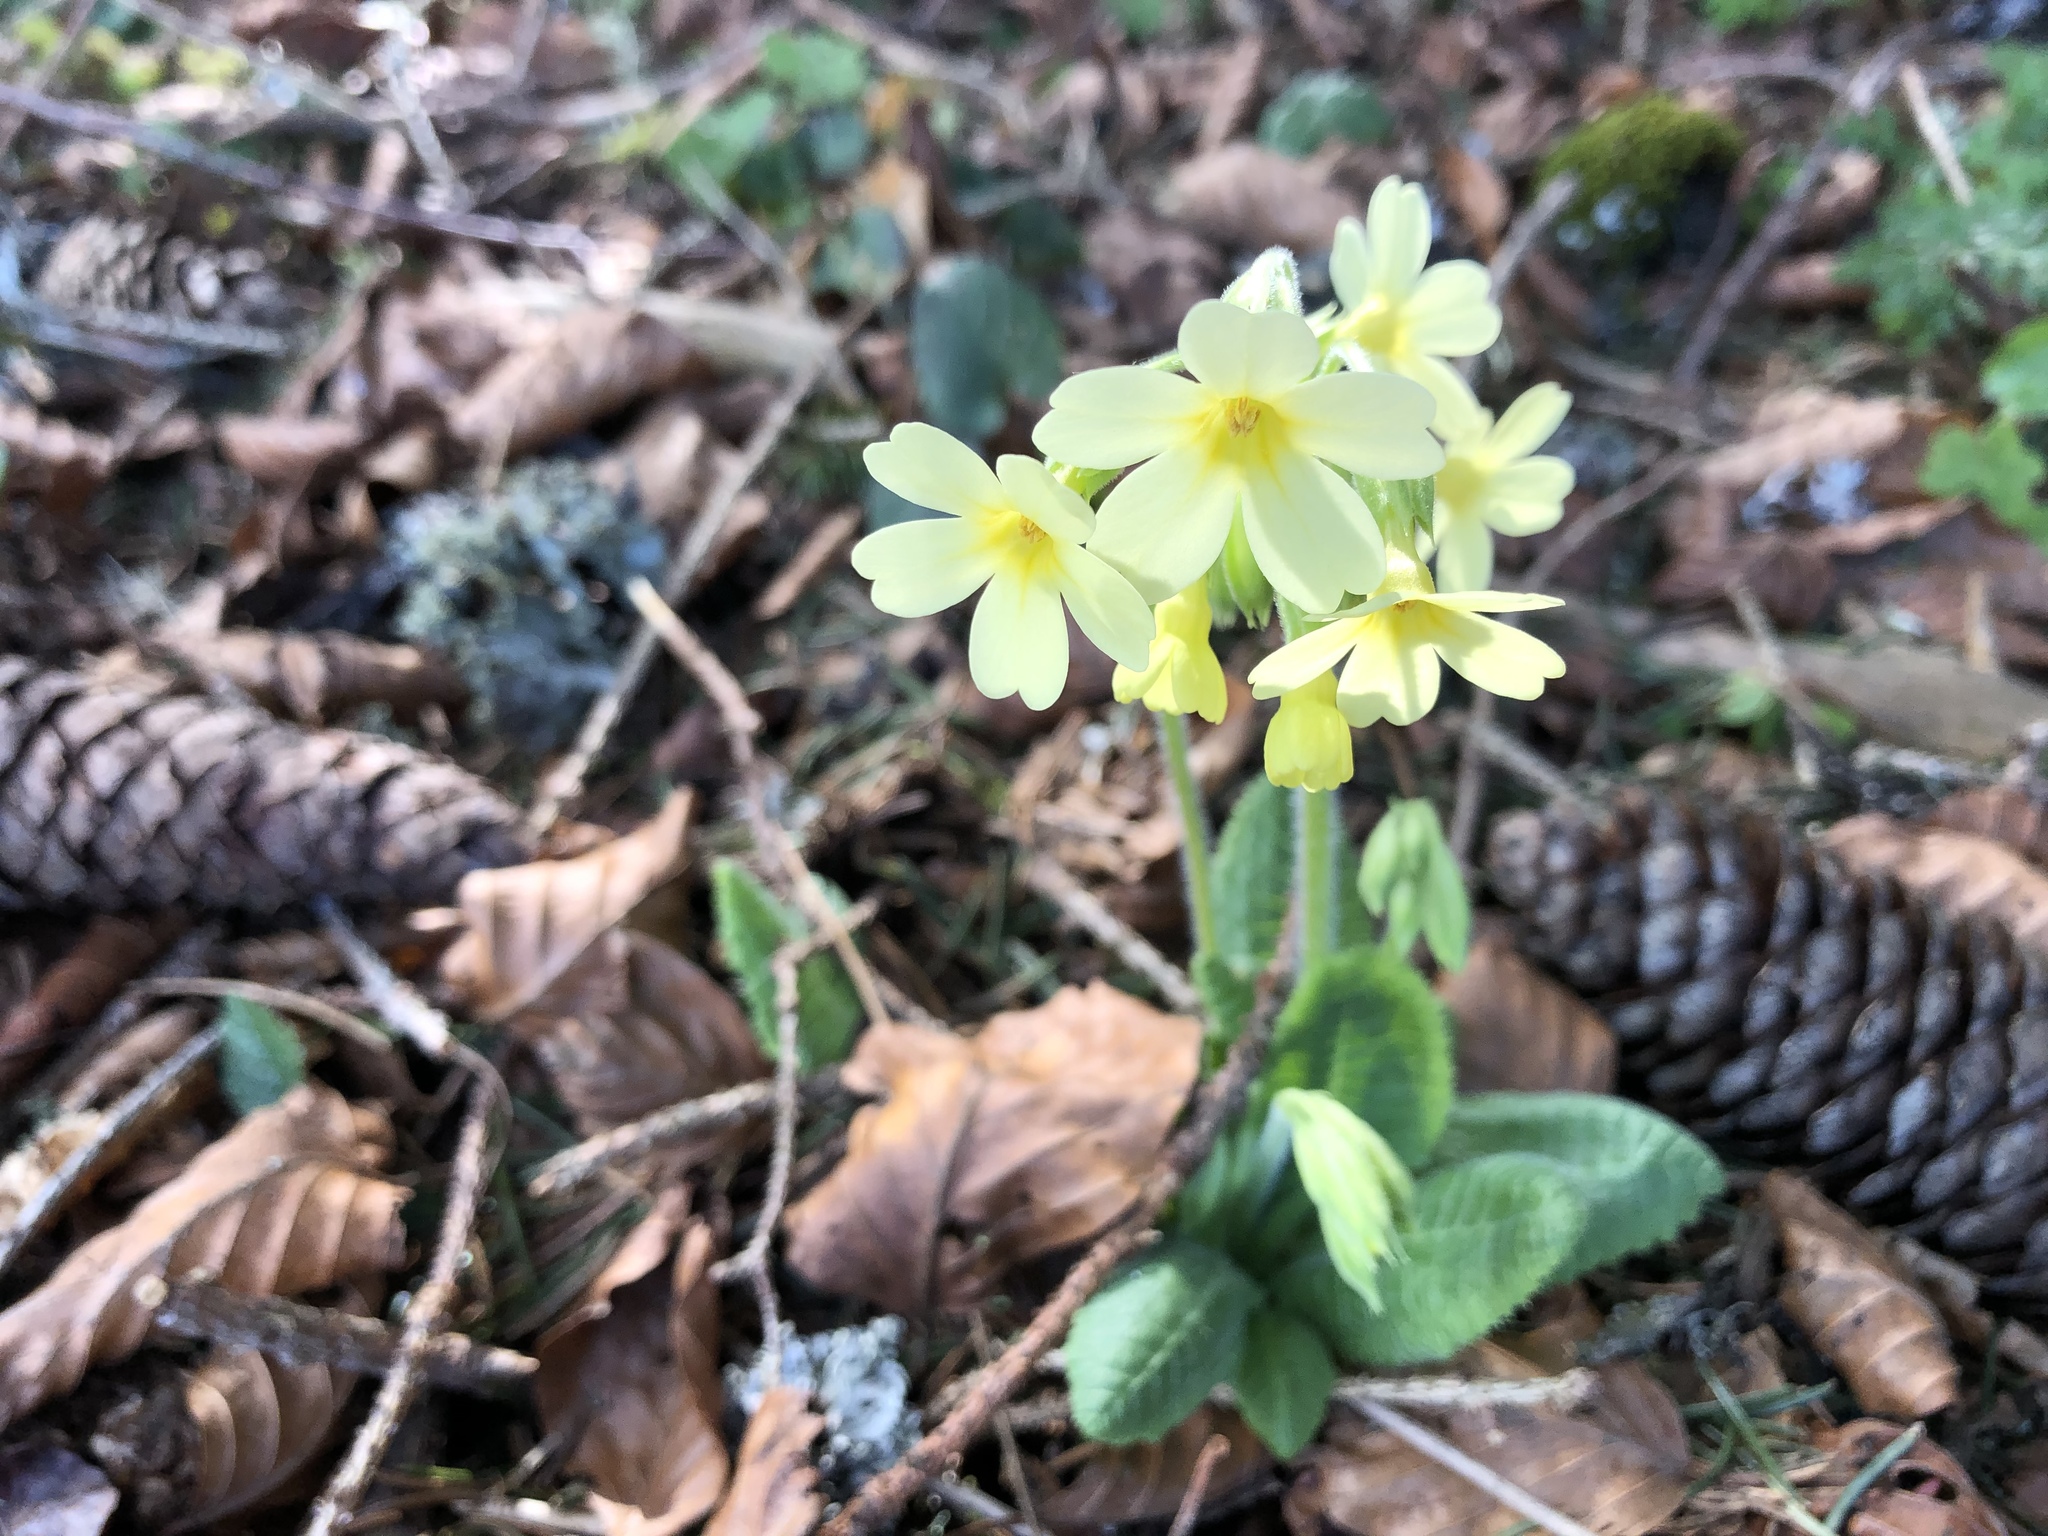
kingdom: Plantae
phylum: Tracheophyta
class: Magnoliopsida
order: Ericales
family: Primulaceae
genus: Primula
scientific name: Primula elatior
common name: Oxlip
